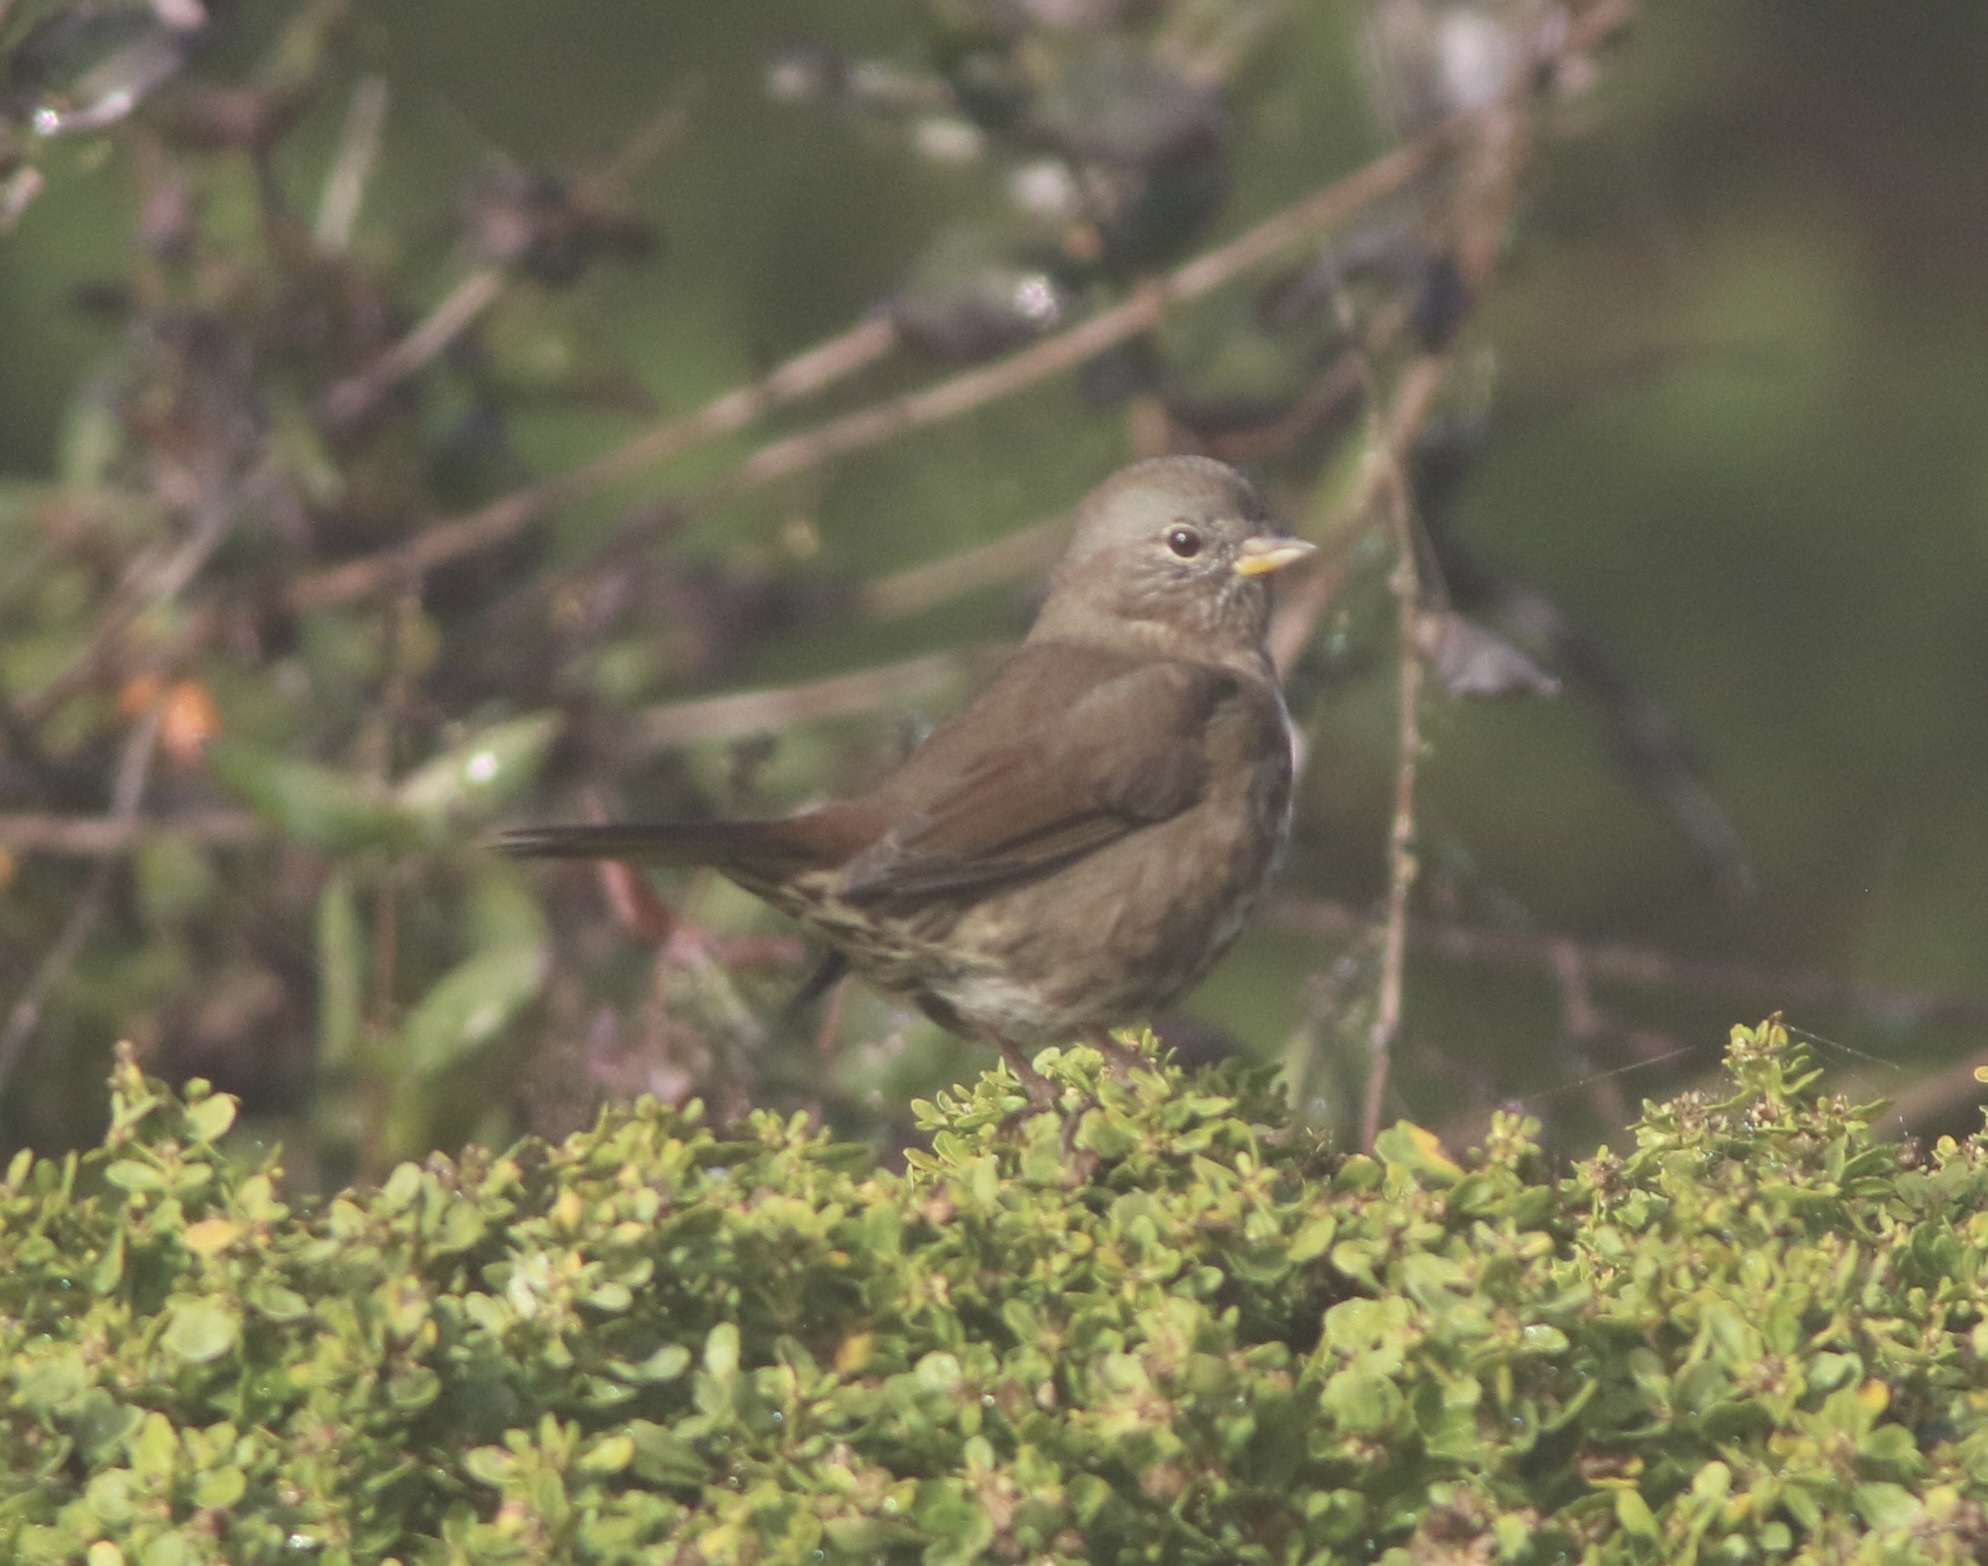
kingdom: Animalia
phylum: Chordata
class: Aves
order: Passeriformes
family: Passerellidae
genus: Passerella
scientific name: Passerella iliaca
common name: Fox sparrow
